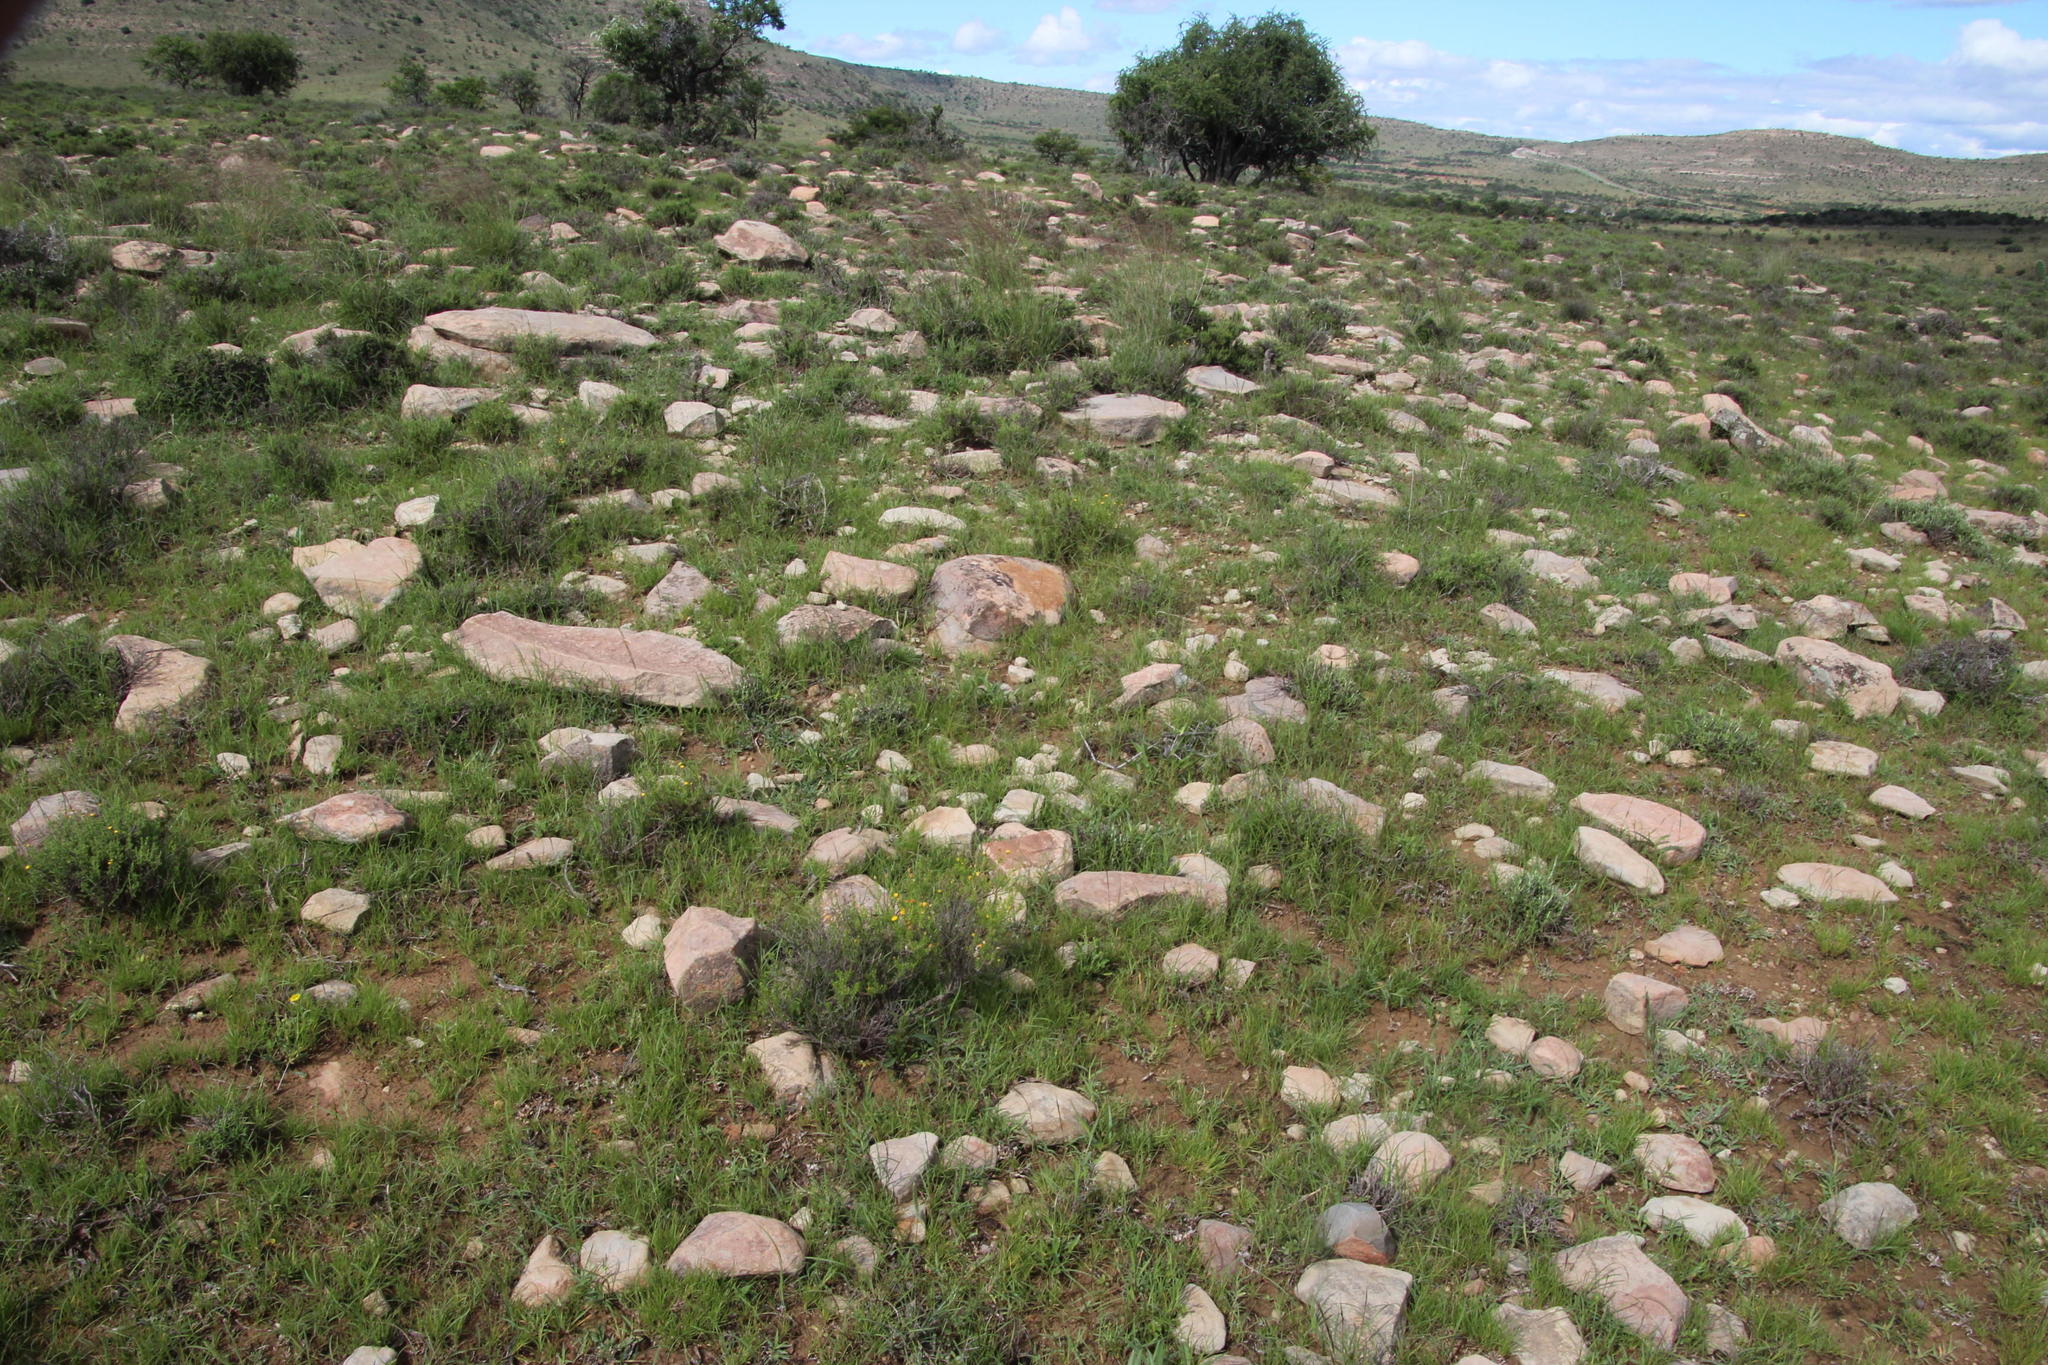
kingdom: Plantae
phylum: Tracheophyta
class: Magnoliopsida
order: Asterales
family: Asteraceae
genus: Chrysocoma
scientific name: Chrysocoma ciliata
